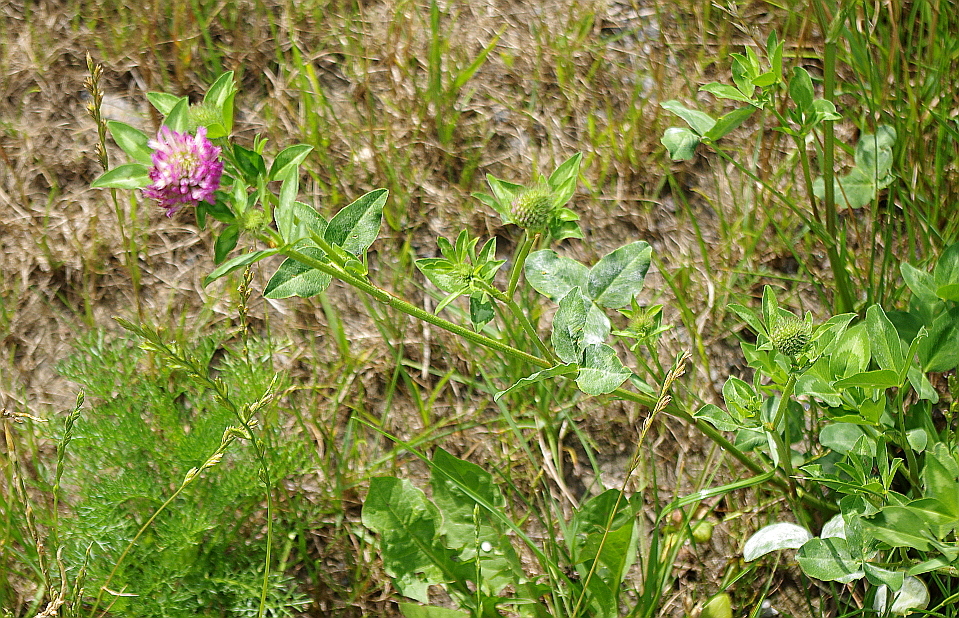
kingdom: Plantae
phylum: Tracheophyta
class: Magnoliopsida
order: Fabales
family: Fabaceae
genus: Trifolium
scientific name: Trifolium pratense
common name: Red clover
